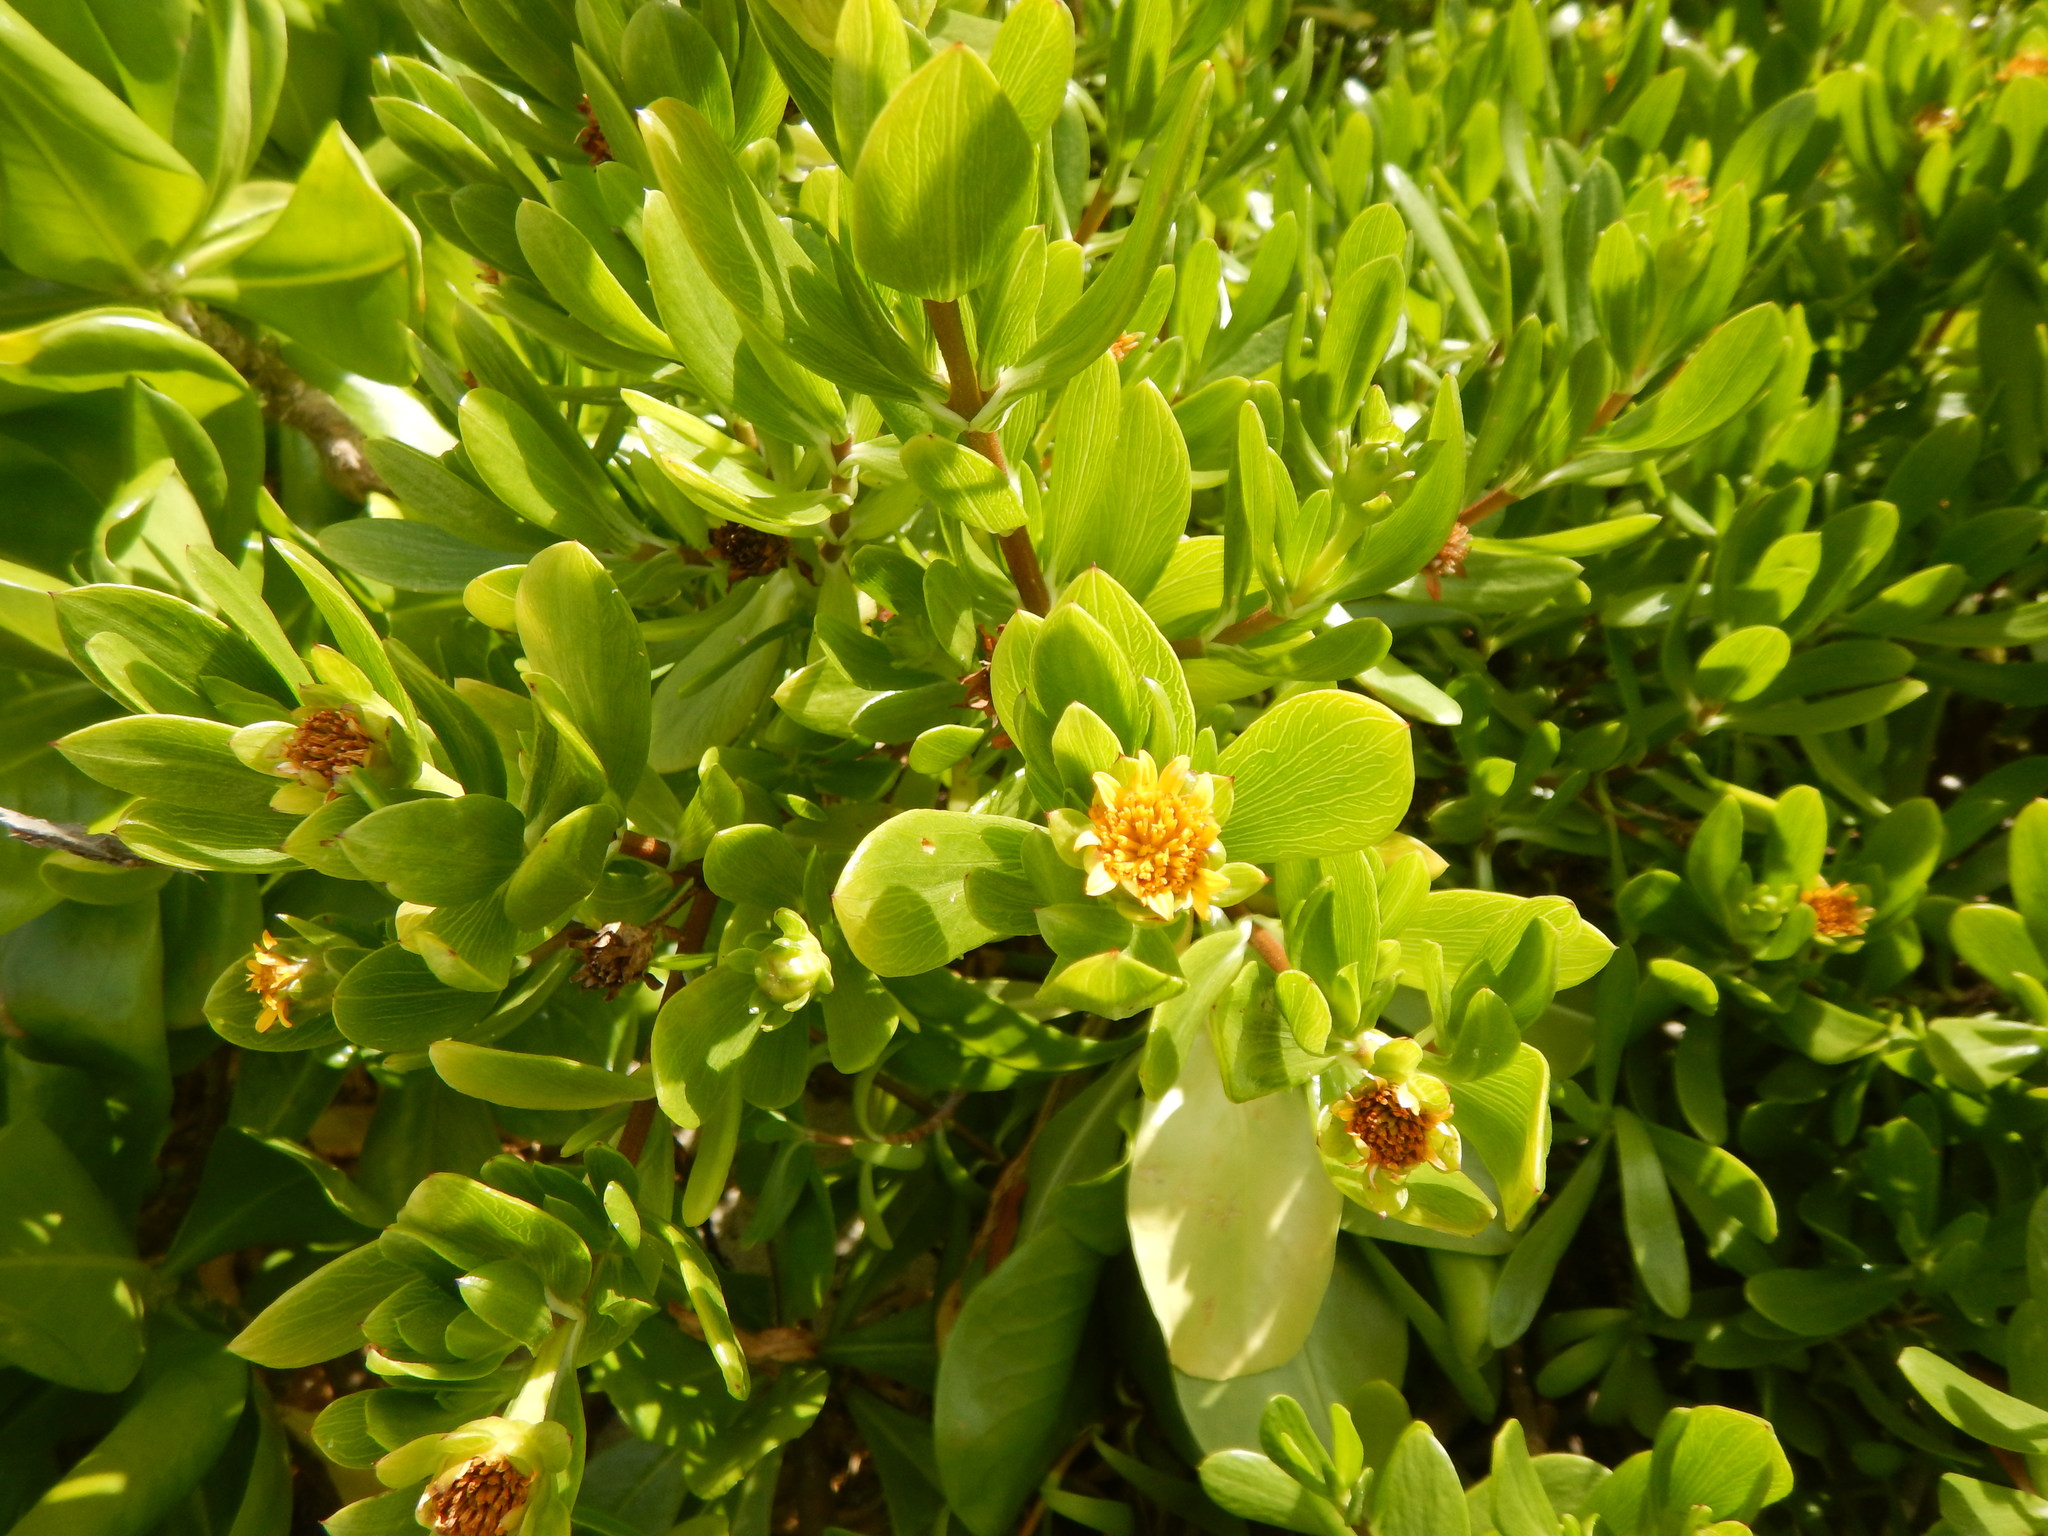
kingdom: Plantae
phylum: Tracheophyta
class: Magnoliopsida
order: Asterales
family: Asteraceae
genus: Borrichia
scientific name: Borrichia arborescens
